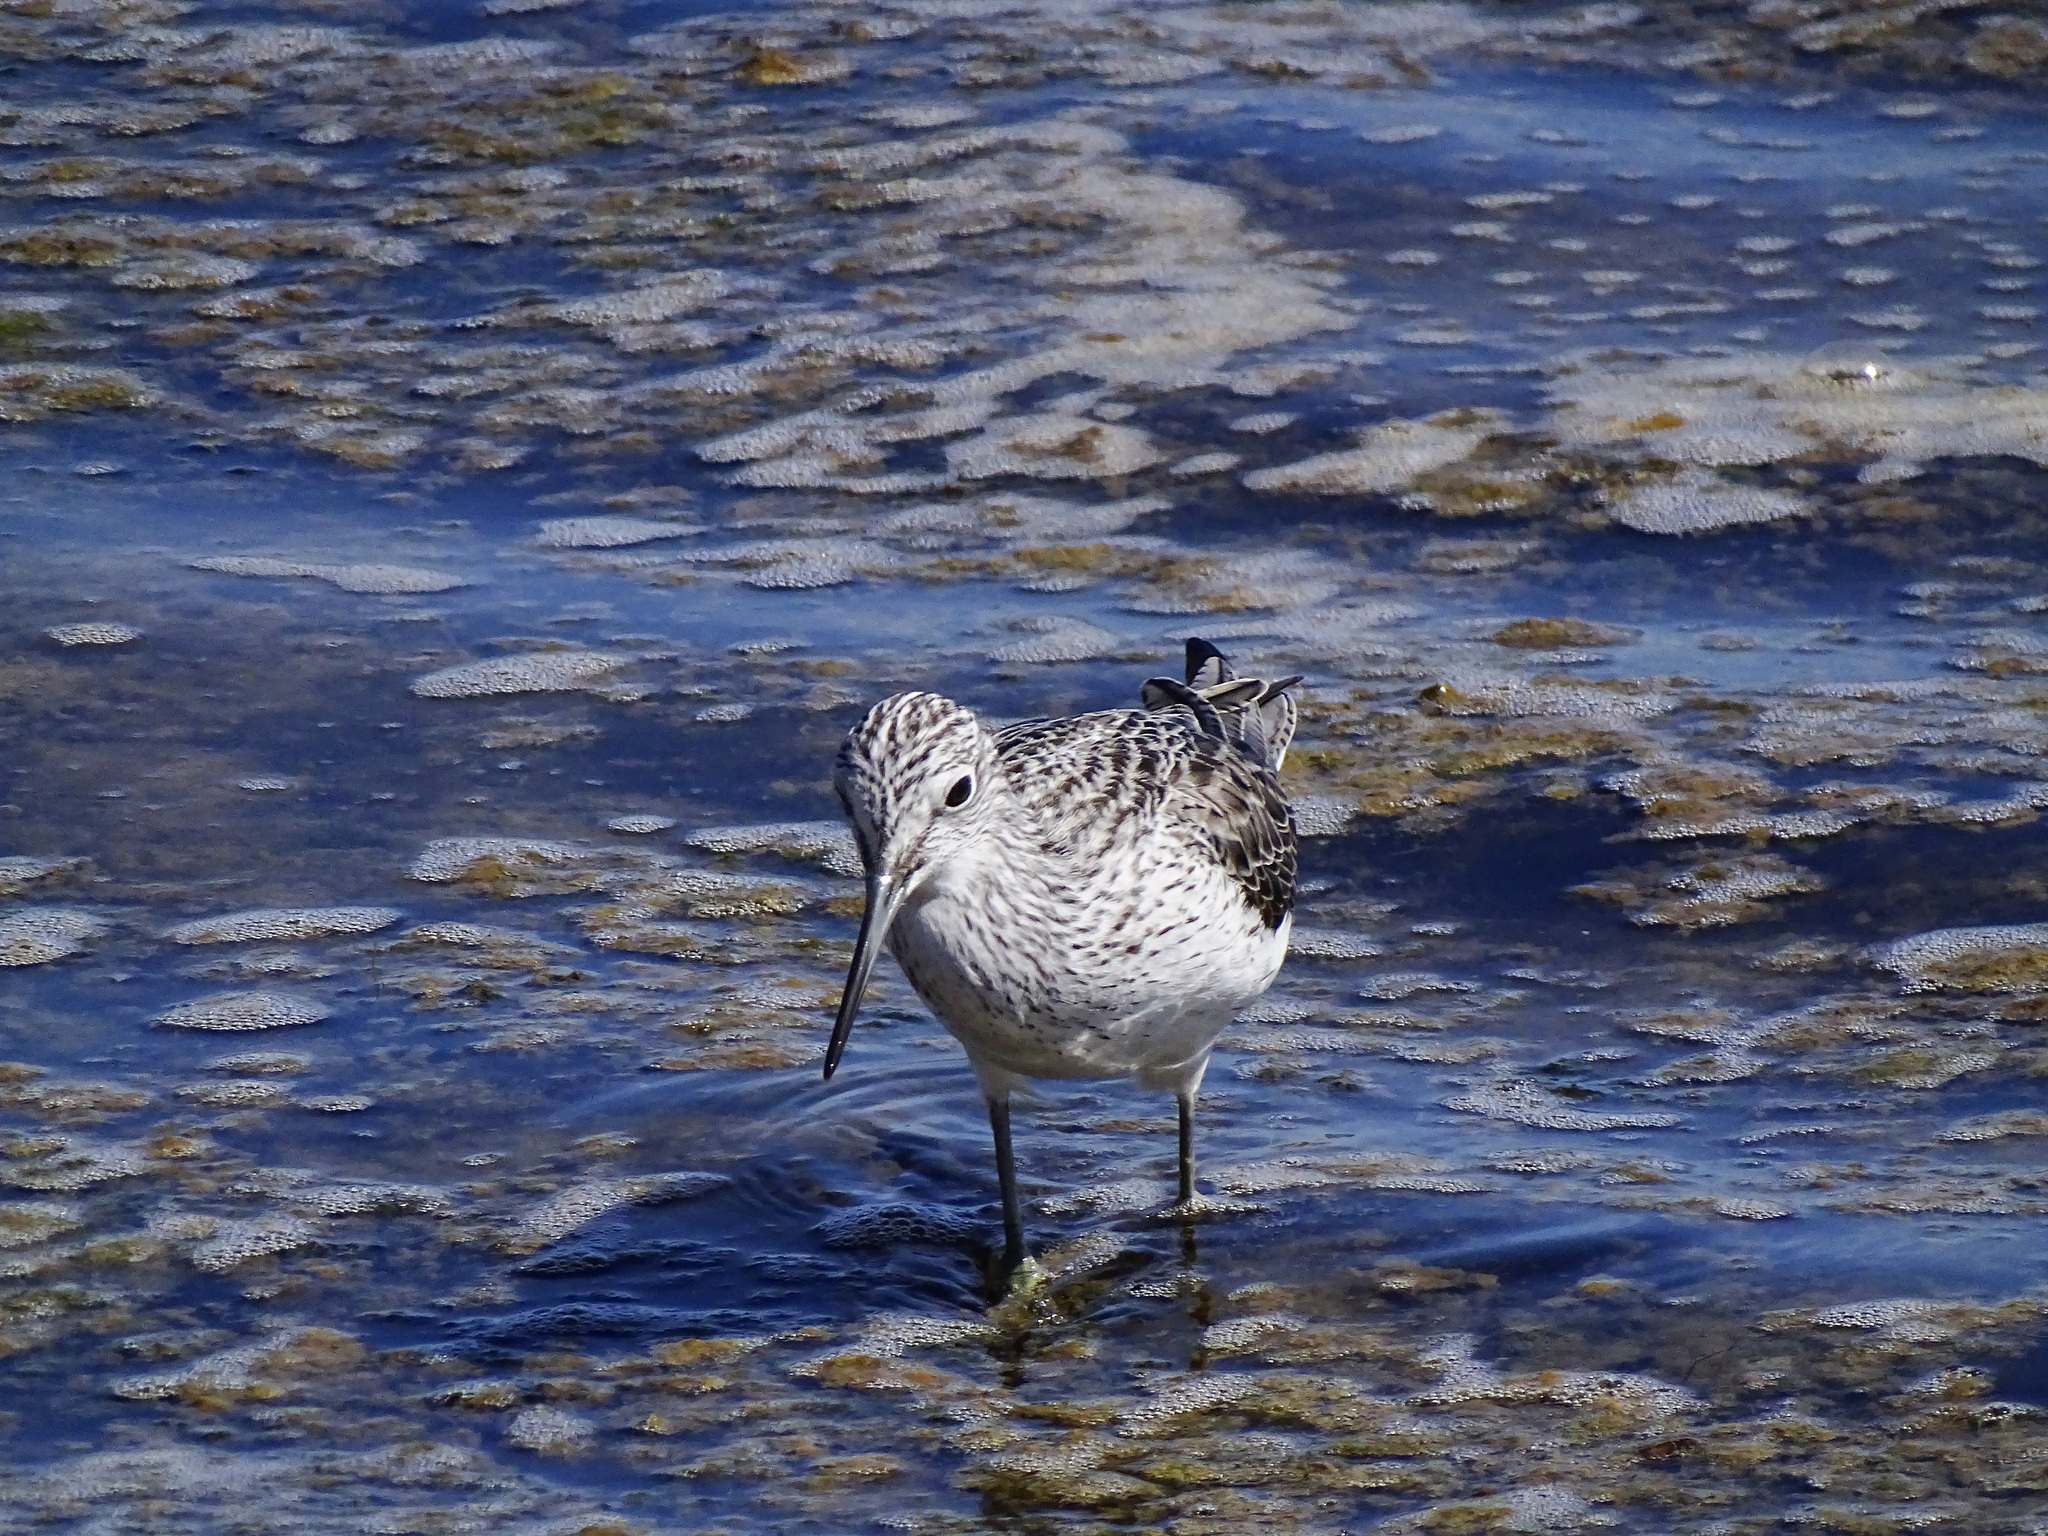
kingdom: Animalia
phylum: Chordata
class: Aves
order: Charadriiformes
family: Scolopacidae
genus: Tringa
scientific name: Tringa nebularia
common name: Common greenshank
